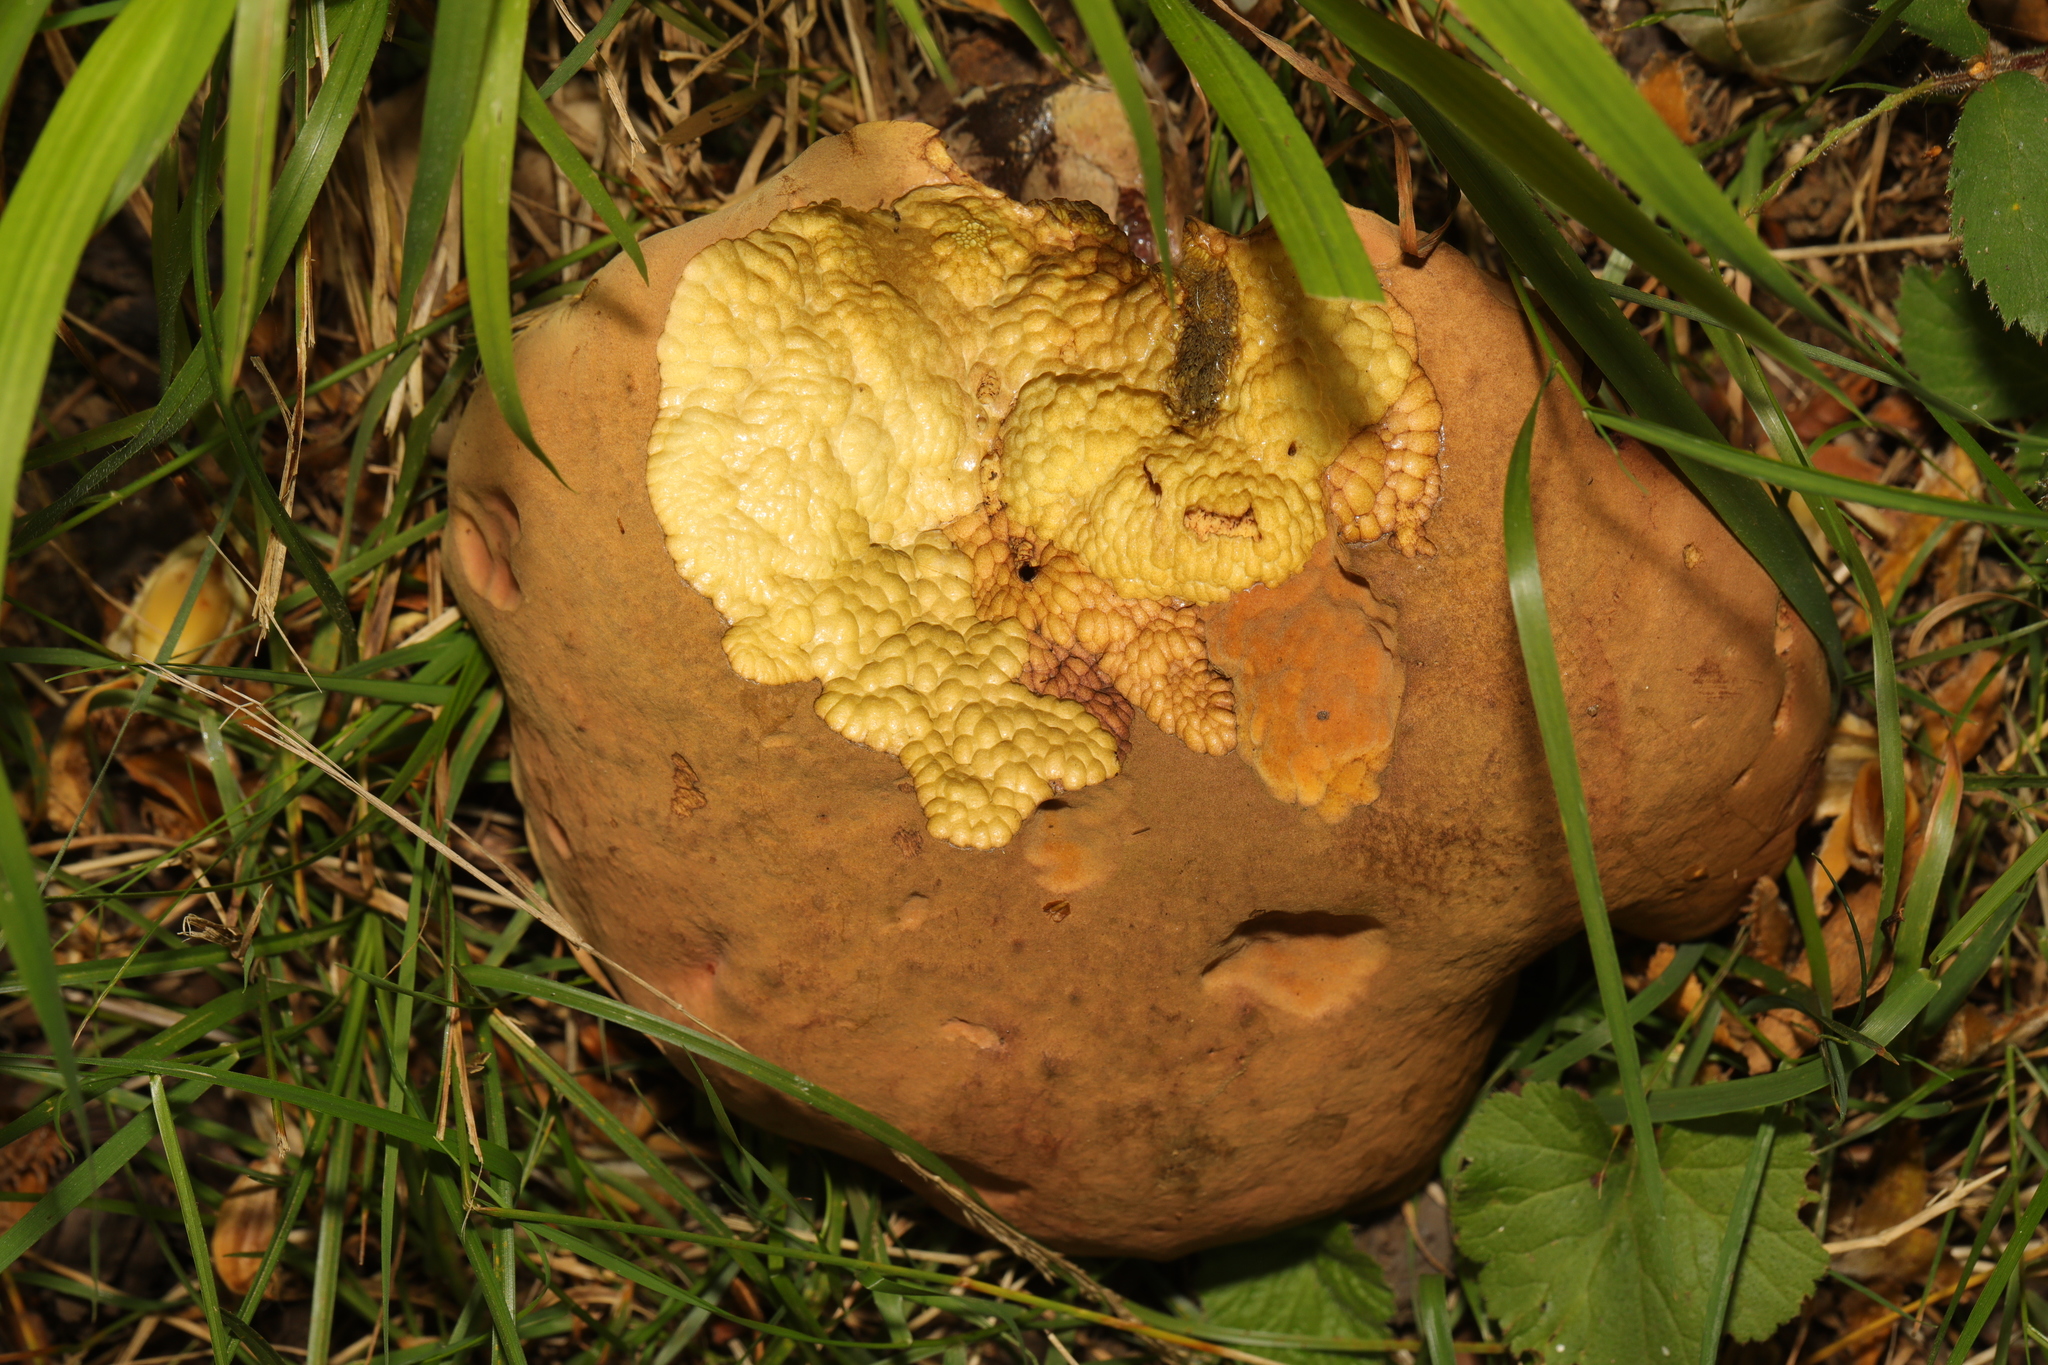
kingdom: Fungi
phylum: Basidiomycota
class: Agaricomycetes
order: Boletales
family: Boletaceae
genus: Neoboletus
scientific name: Neoboletus erythropus
